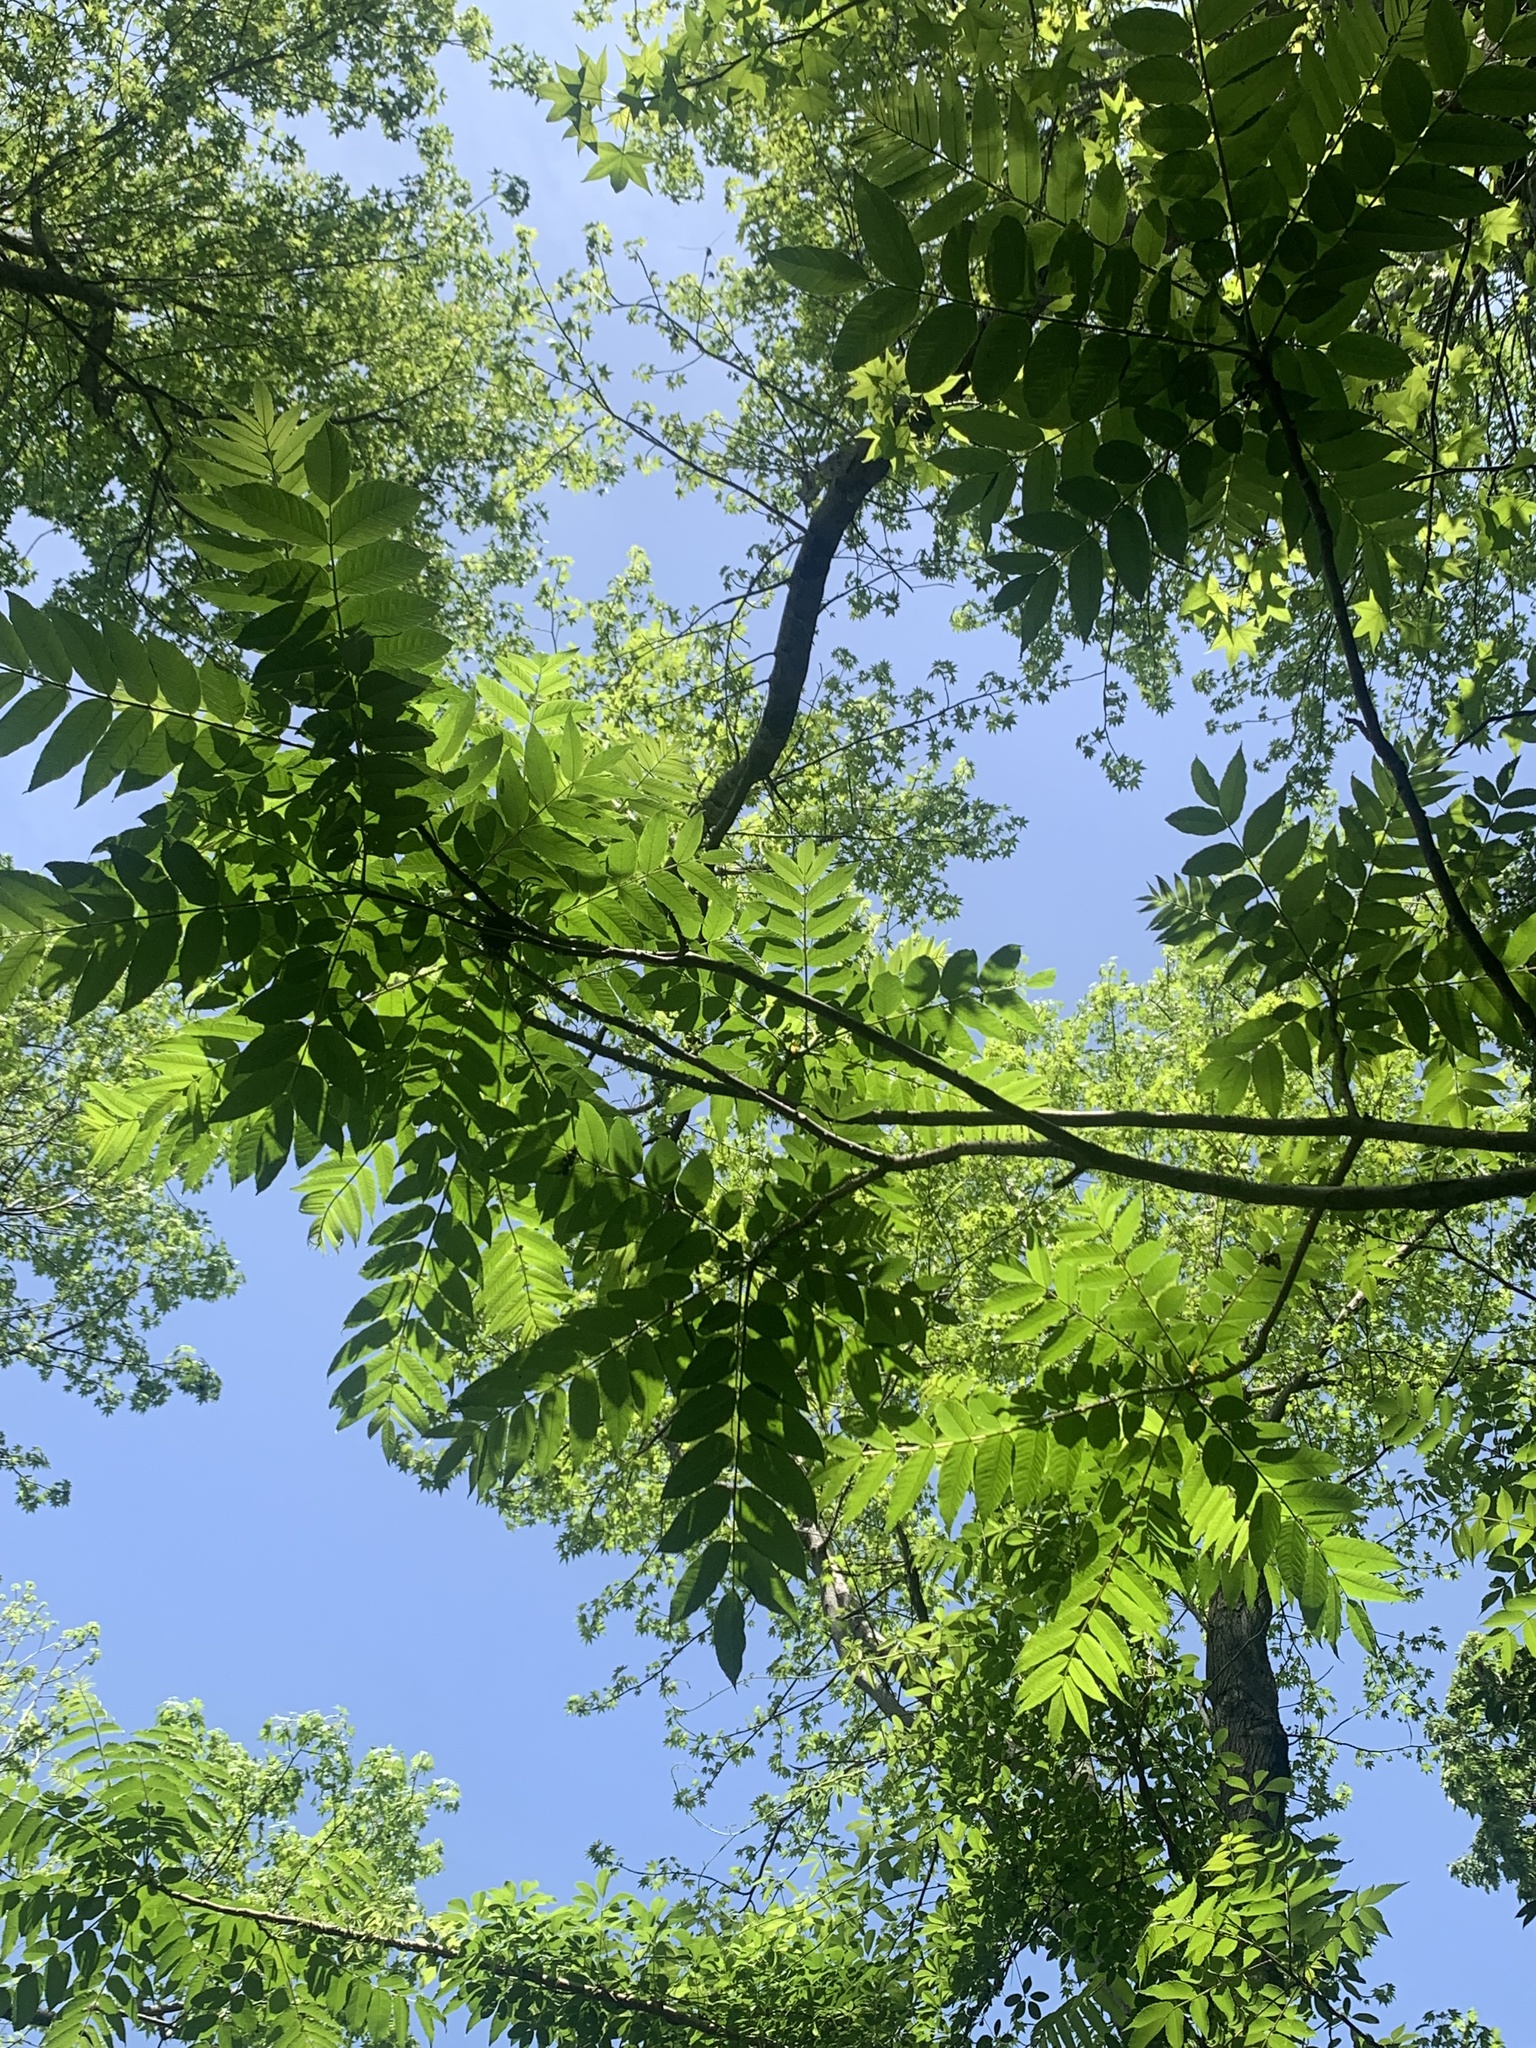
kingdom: Plantae
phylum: Tracheophyta
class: Magnoliopsida
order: Sapindales
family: Rutaceae
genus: Zanthoxylum
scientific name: Zanthoxylum ailanthoides
